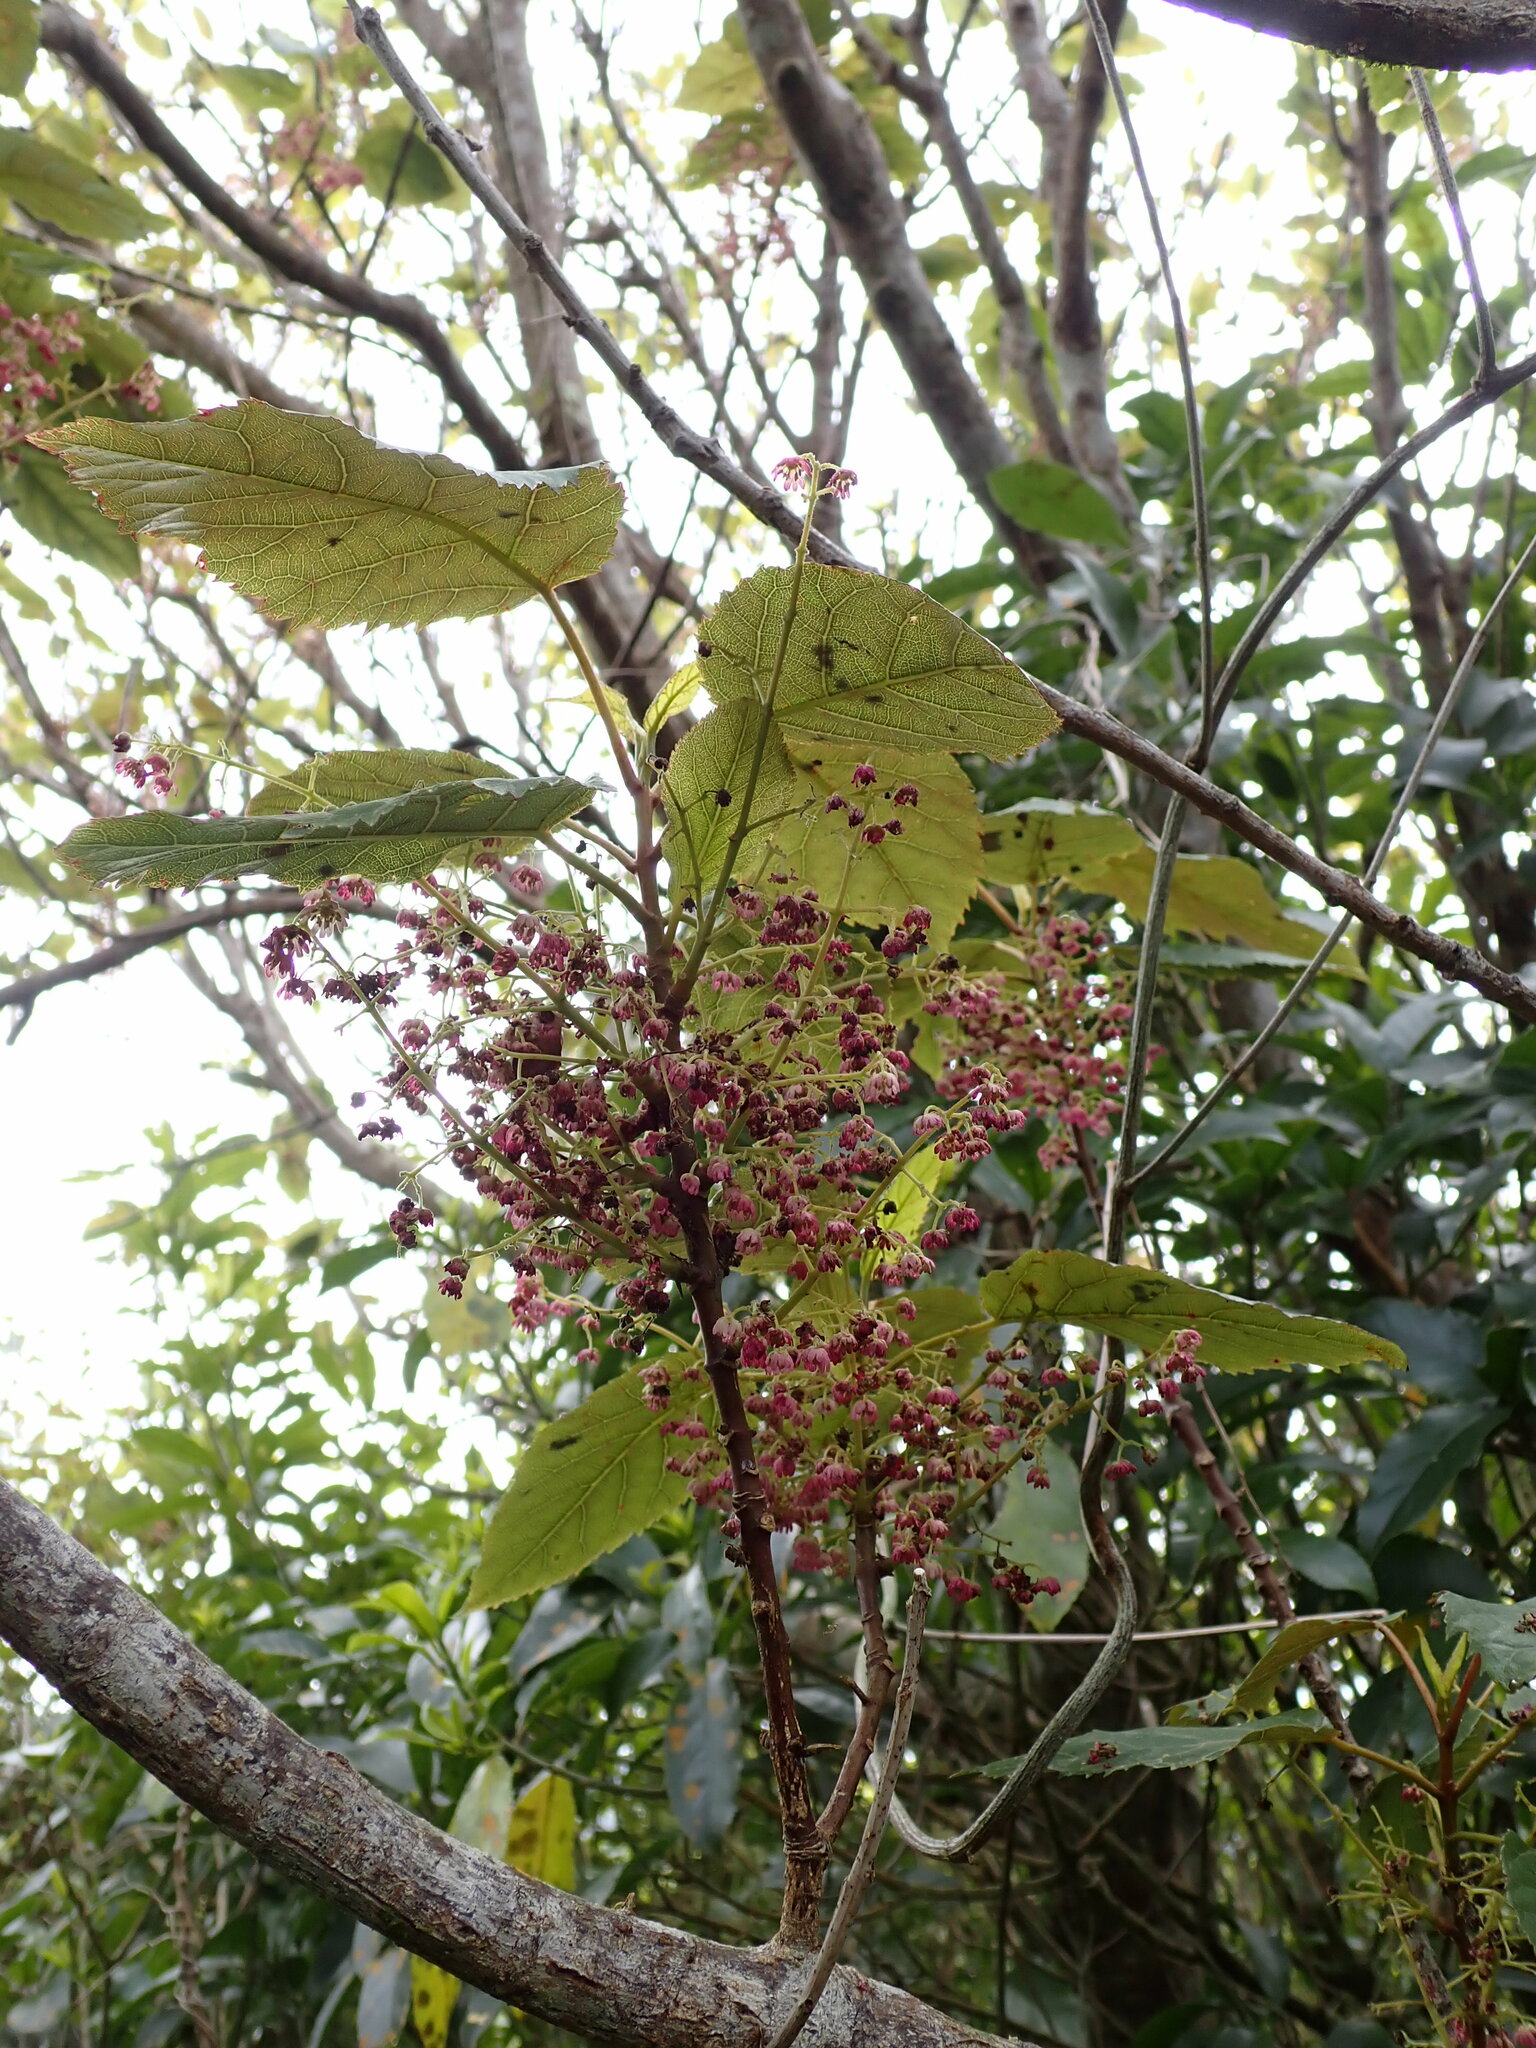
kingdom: Plantae
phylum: Tracheophyta
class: Magnoliopsida
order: Oxalidales
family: Elaeocarpaceae
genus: Aristotelia
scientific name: Aristotelia serrata
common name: New zealand wineberry
